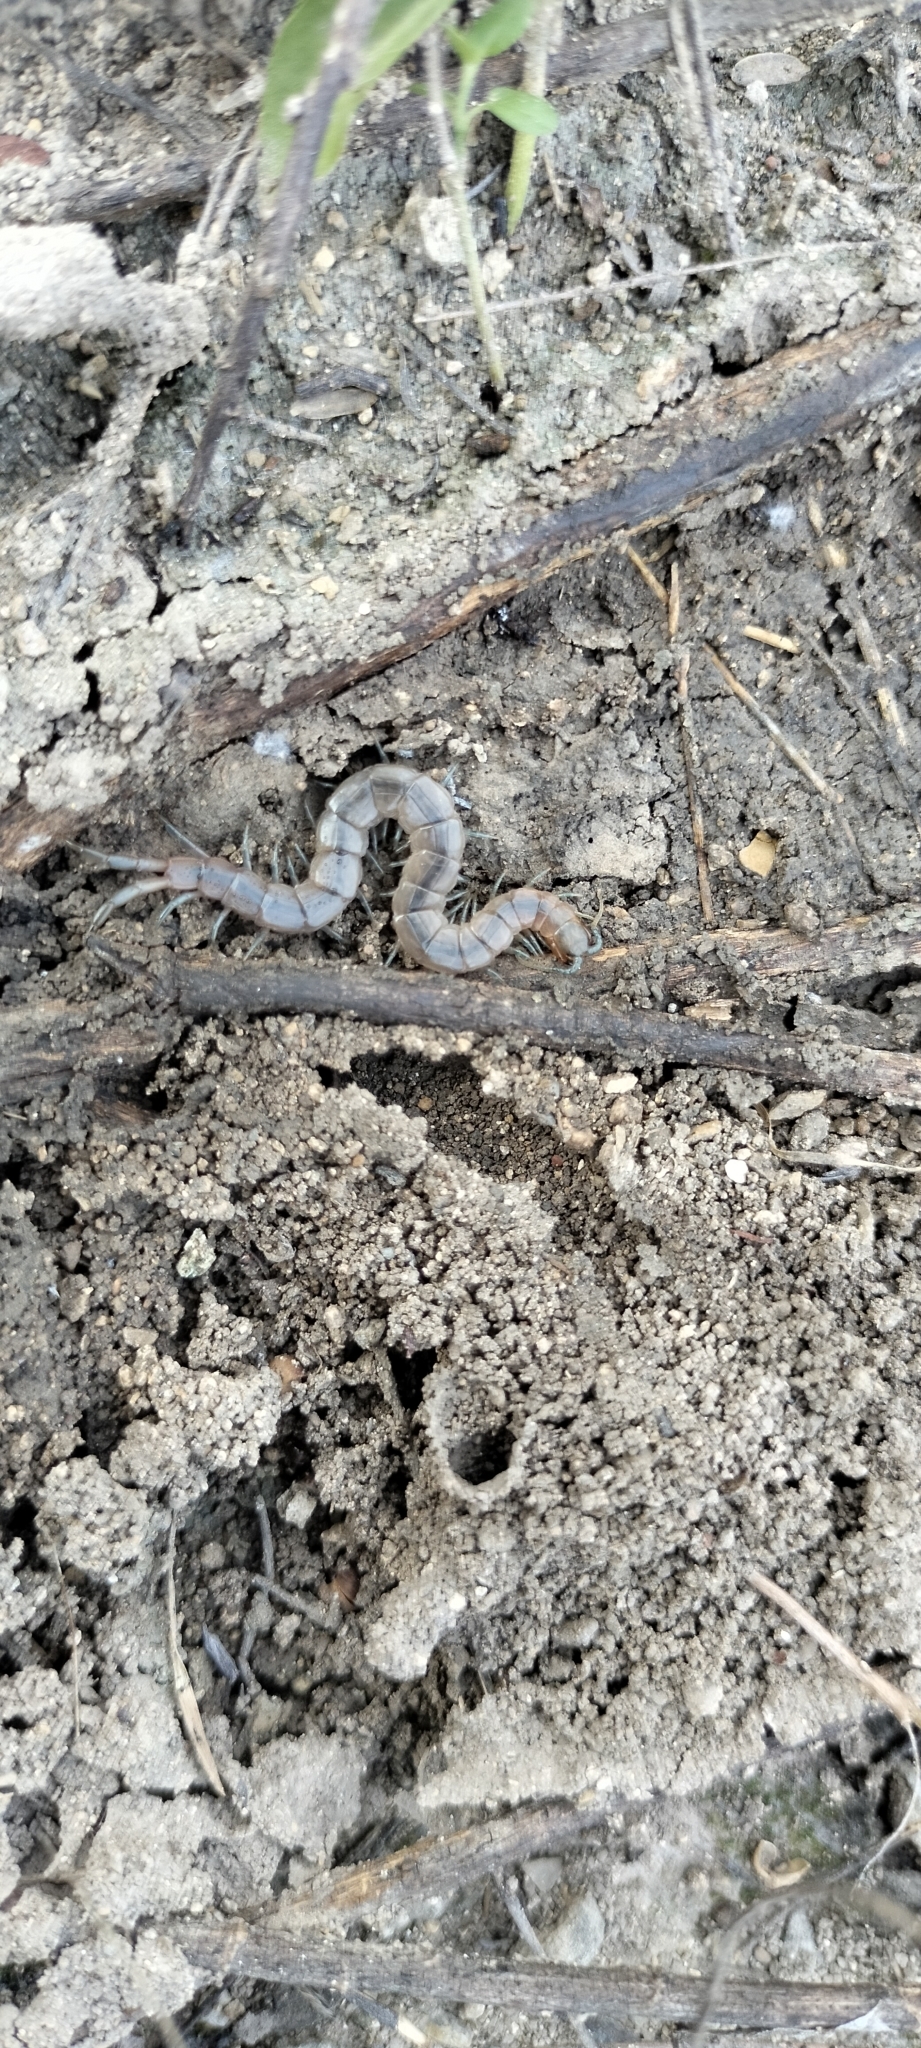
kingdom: Animalia
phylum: Arthropoda
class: Chilopoda
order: Scolopendromorpha
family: Scolopendridae
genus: Arthrorhabdus
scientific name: Arthrorhabdus pygmaeus
